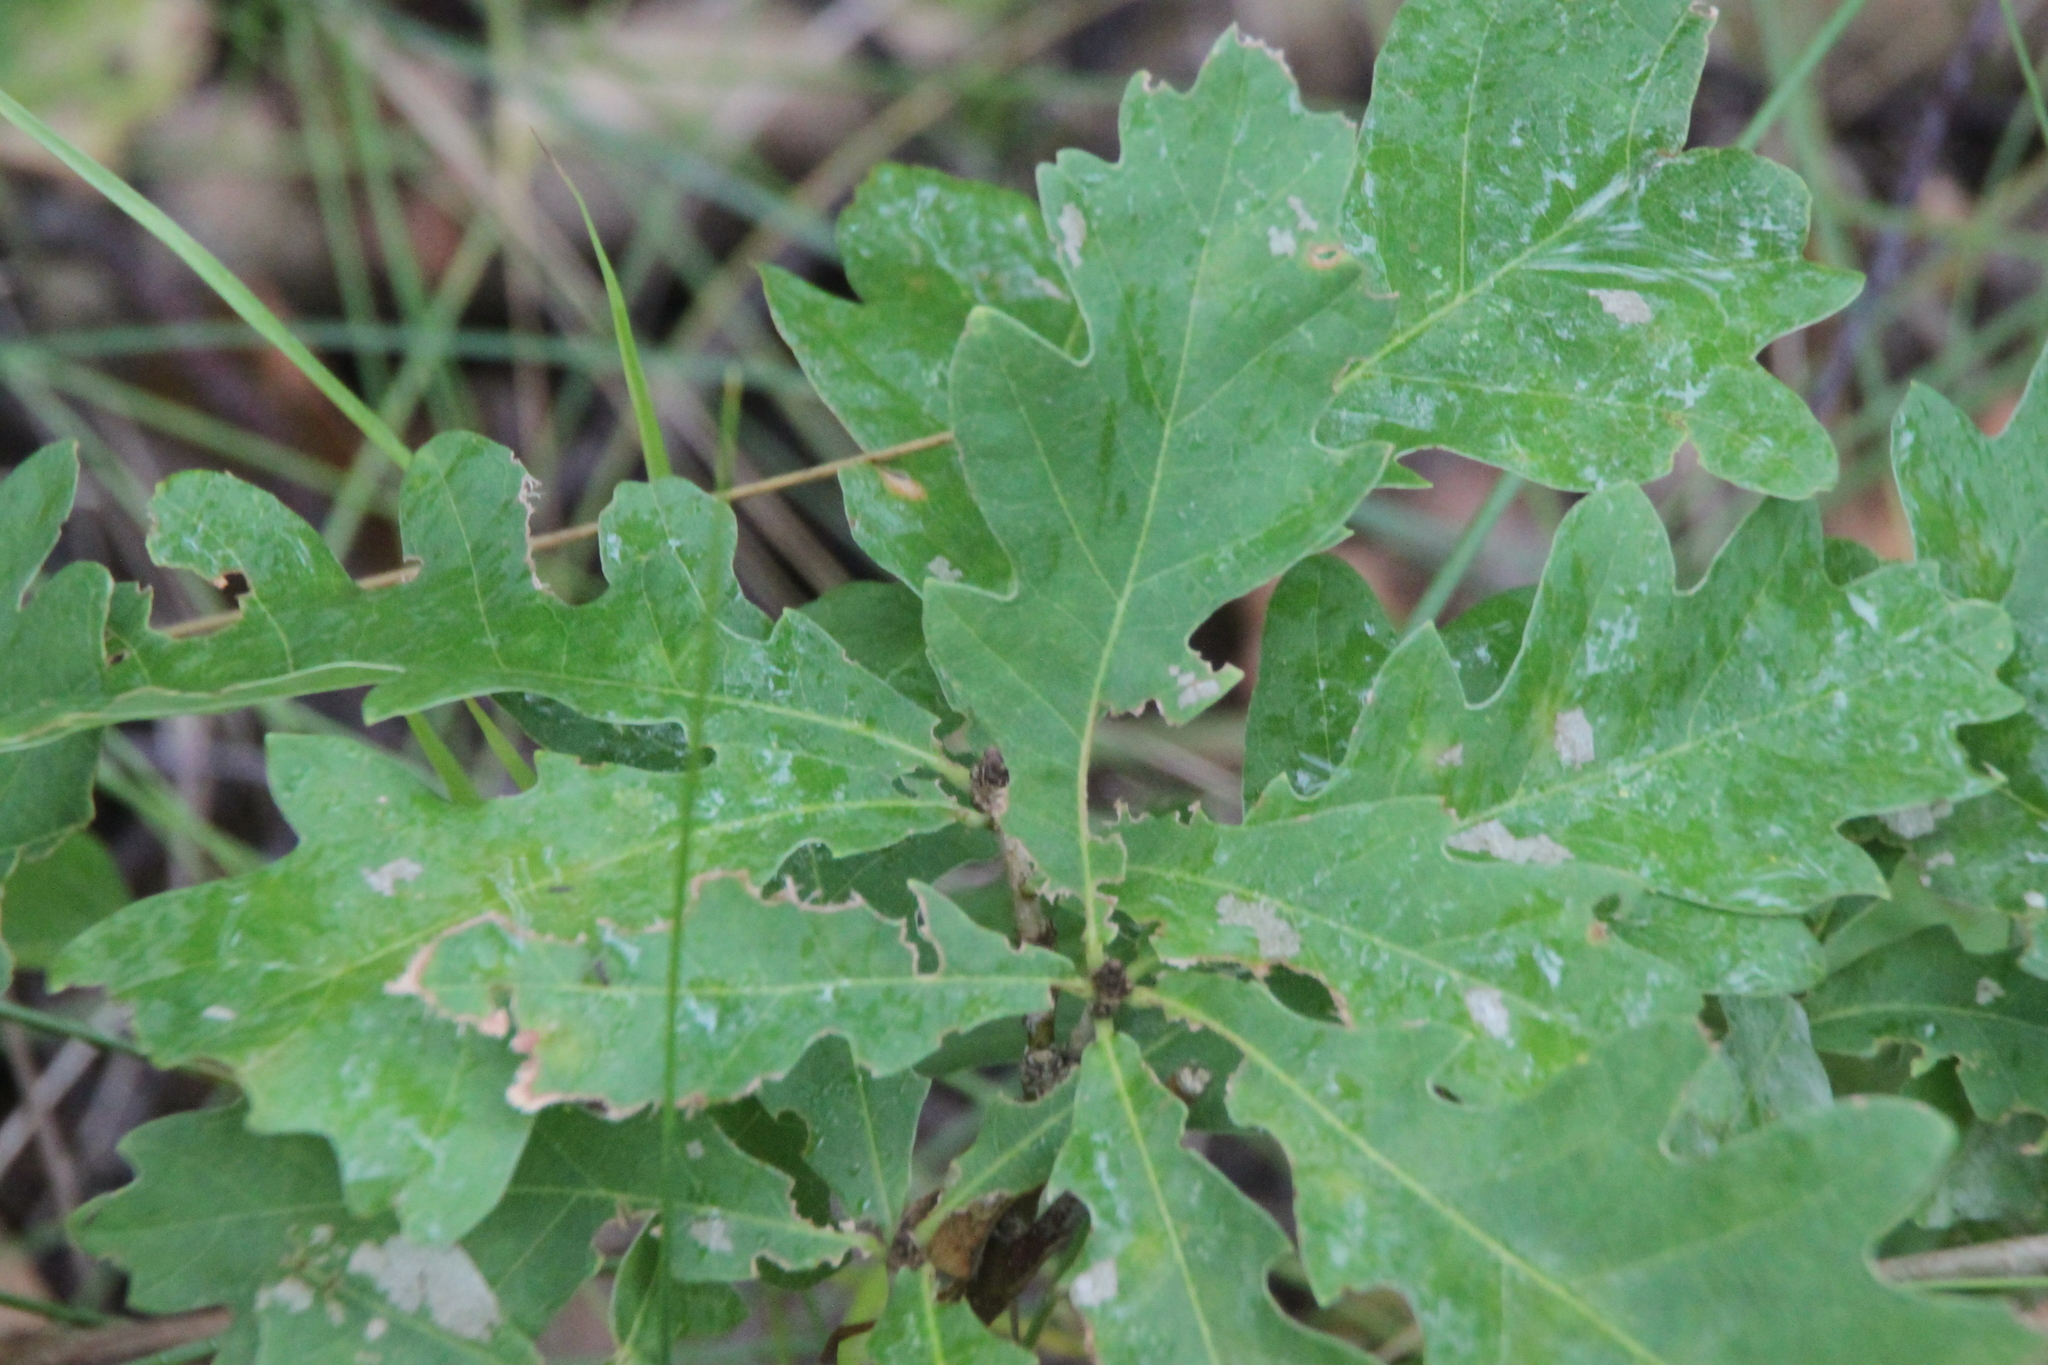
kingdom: Plantae
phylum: Tracheophyta
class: Magnoliopsida
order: Fagales
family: Fagaceae
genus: Quercus
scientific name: Quercus robur
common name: Pedunculate oak
